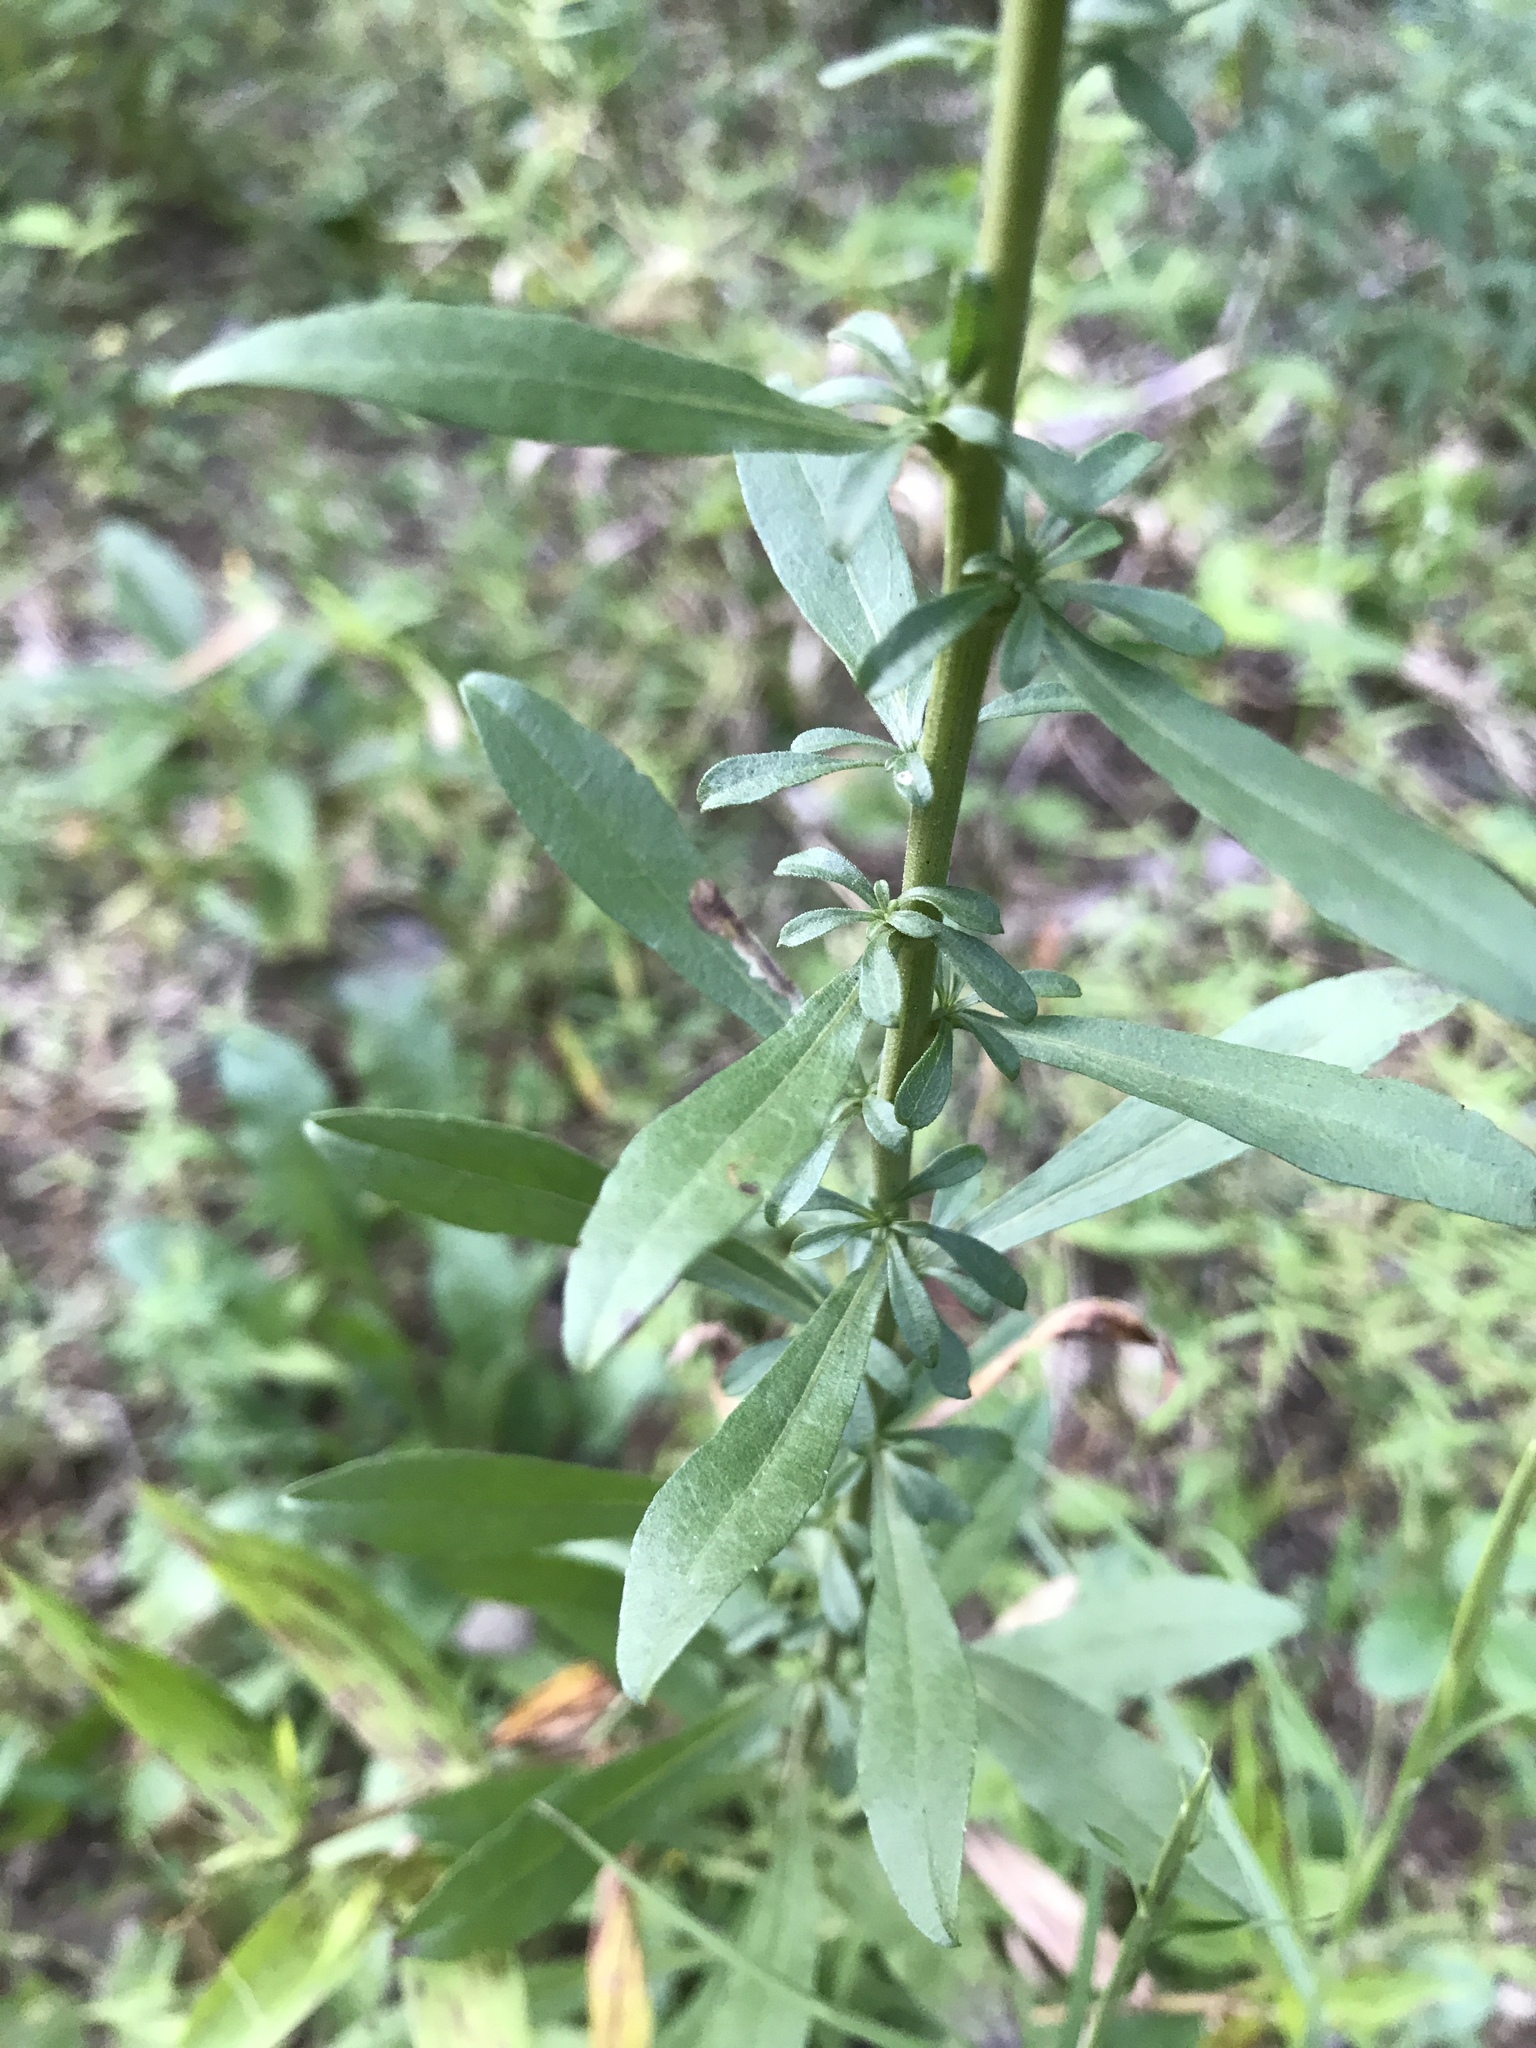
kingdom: Plantae
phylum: Tracheophyta
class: Magnoliopsida
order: Asterales
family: Asteraceae
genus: Solidago
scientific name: Solidago nemoralis
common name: Grey goldenrod
